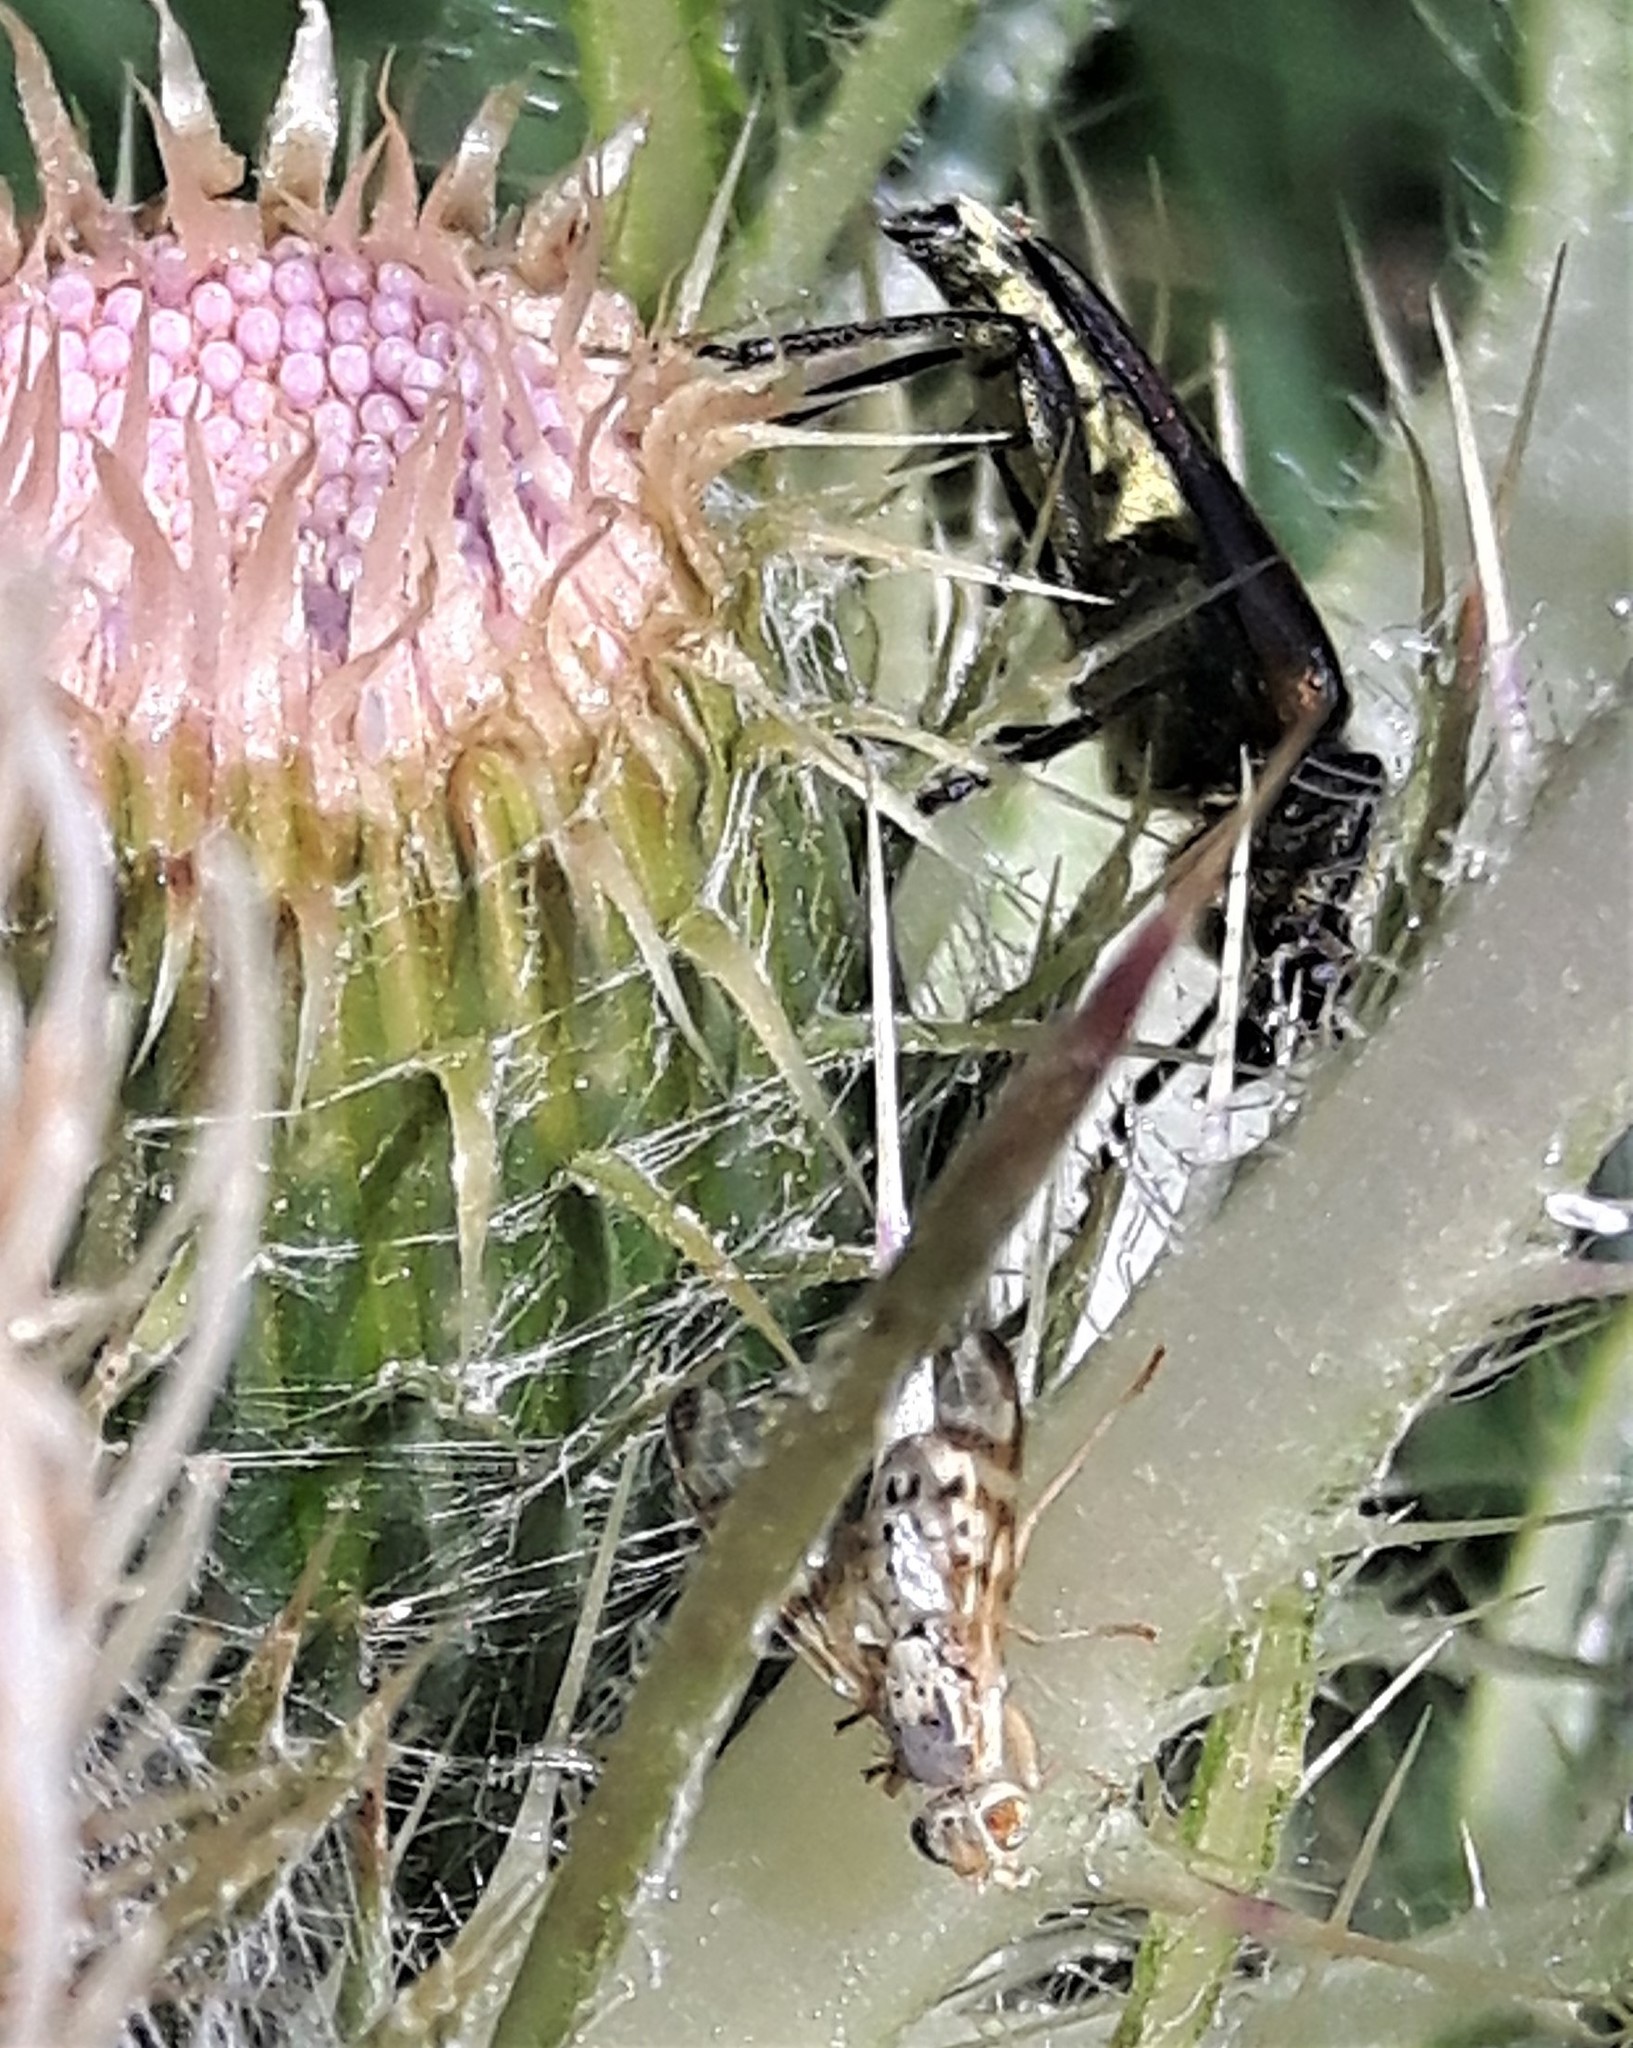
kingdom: Plantae
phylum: Tracheophyta
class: Magnoliopsida
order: Asterales
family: Asteraceae
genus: Cirsium
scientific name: Cirsium scariosum
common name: Meadow thistle
